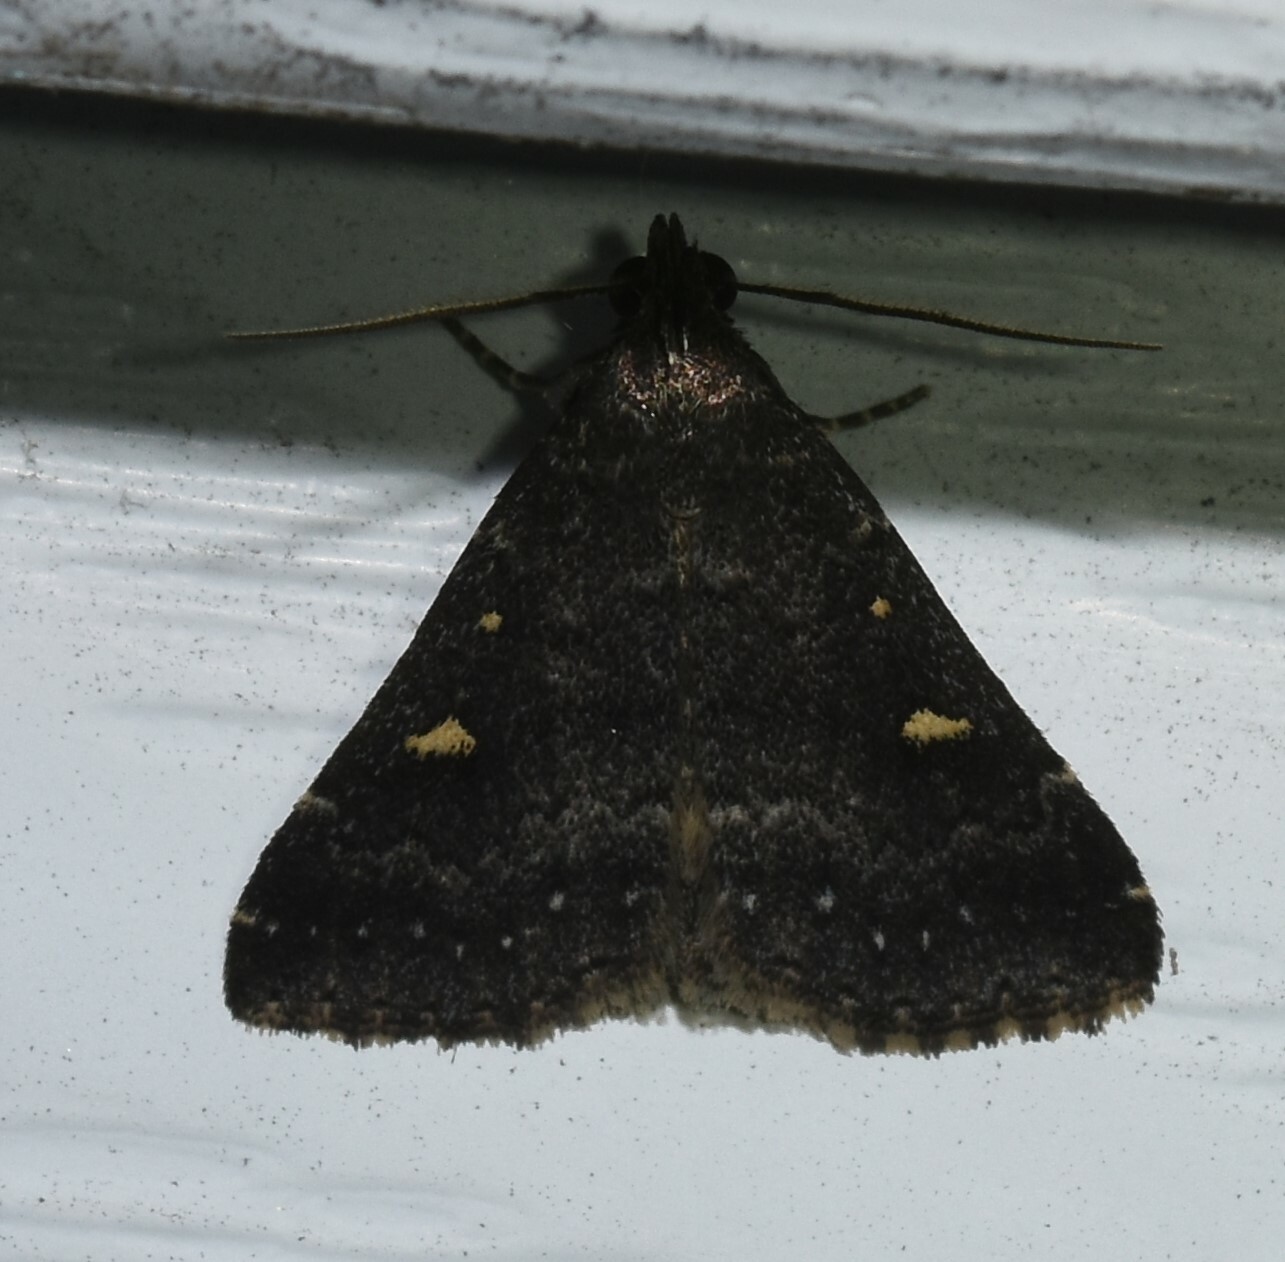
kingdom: Animalia
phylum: Arthropoda
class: Insecta
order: Lepidoptera
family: Erebidae
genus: Tetanolita
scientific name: Tetanolita mynesalis
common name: Smoky tetanolita moth
